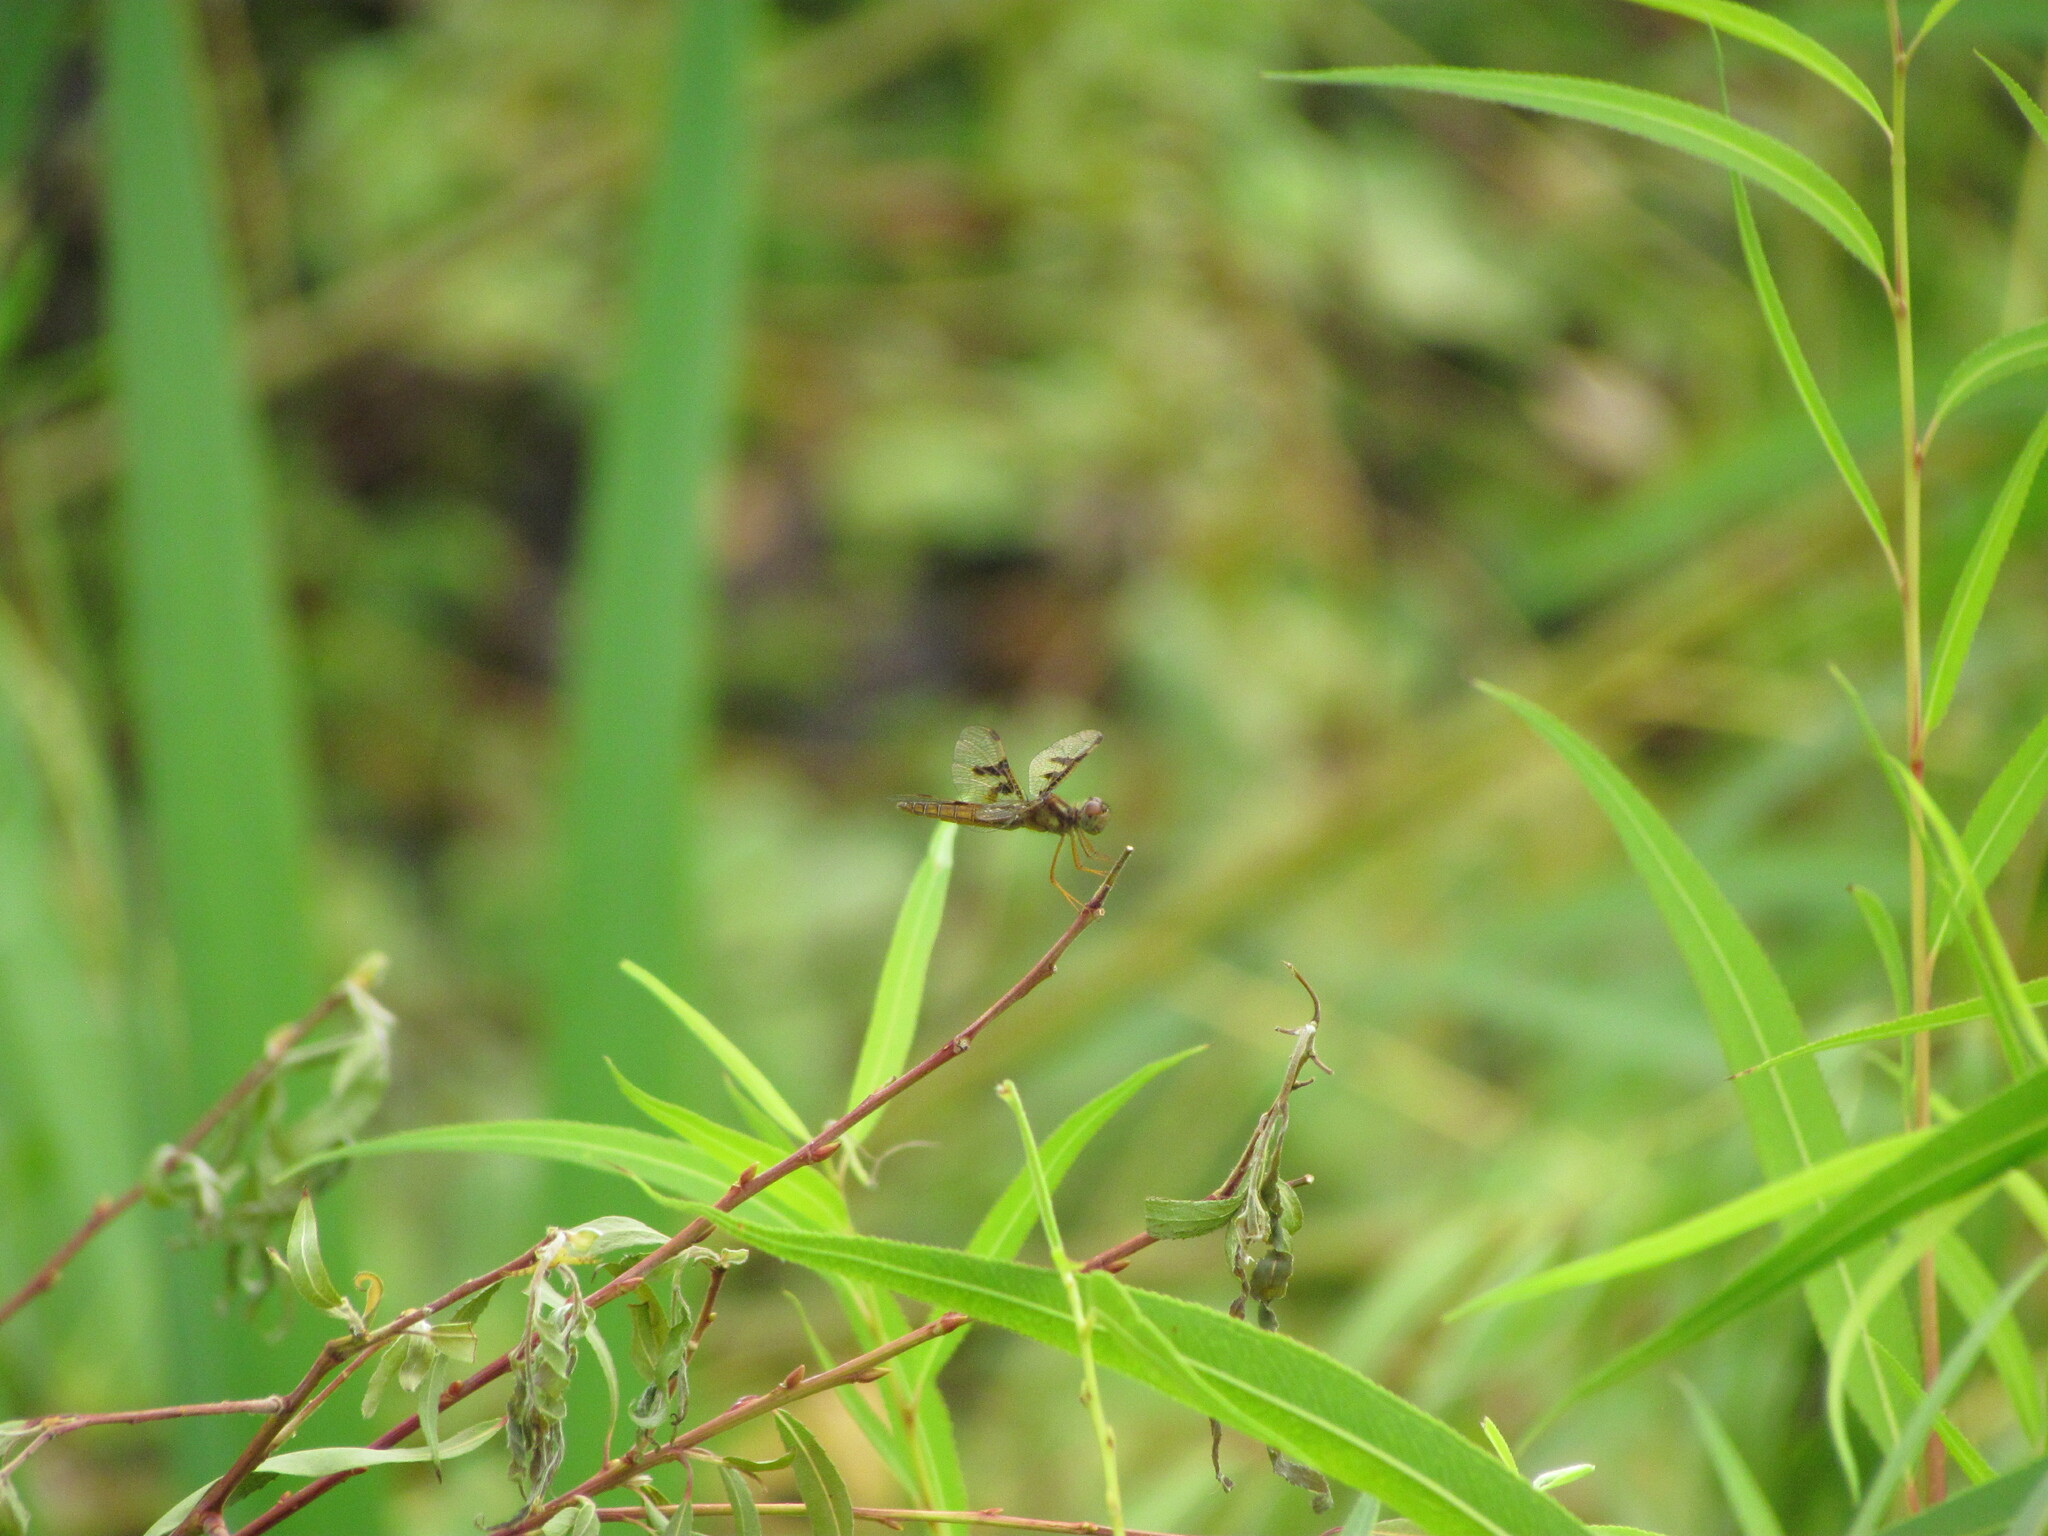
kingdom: Animalia
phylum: Arthropoda
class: Insecta
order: Odonata
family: Libellulidae
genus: Perithemis
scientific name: Perithemis tenera
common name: Eastern amberwing
